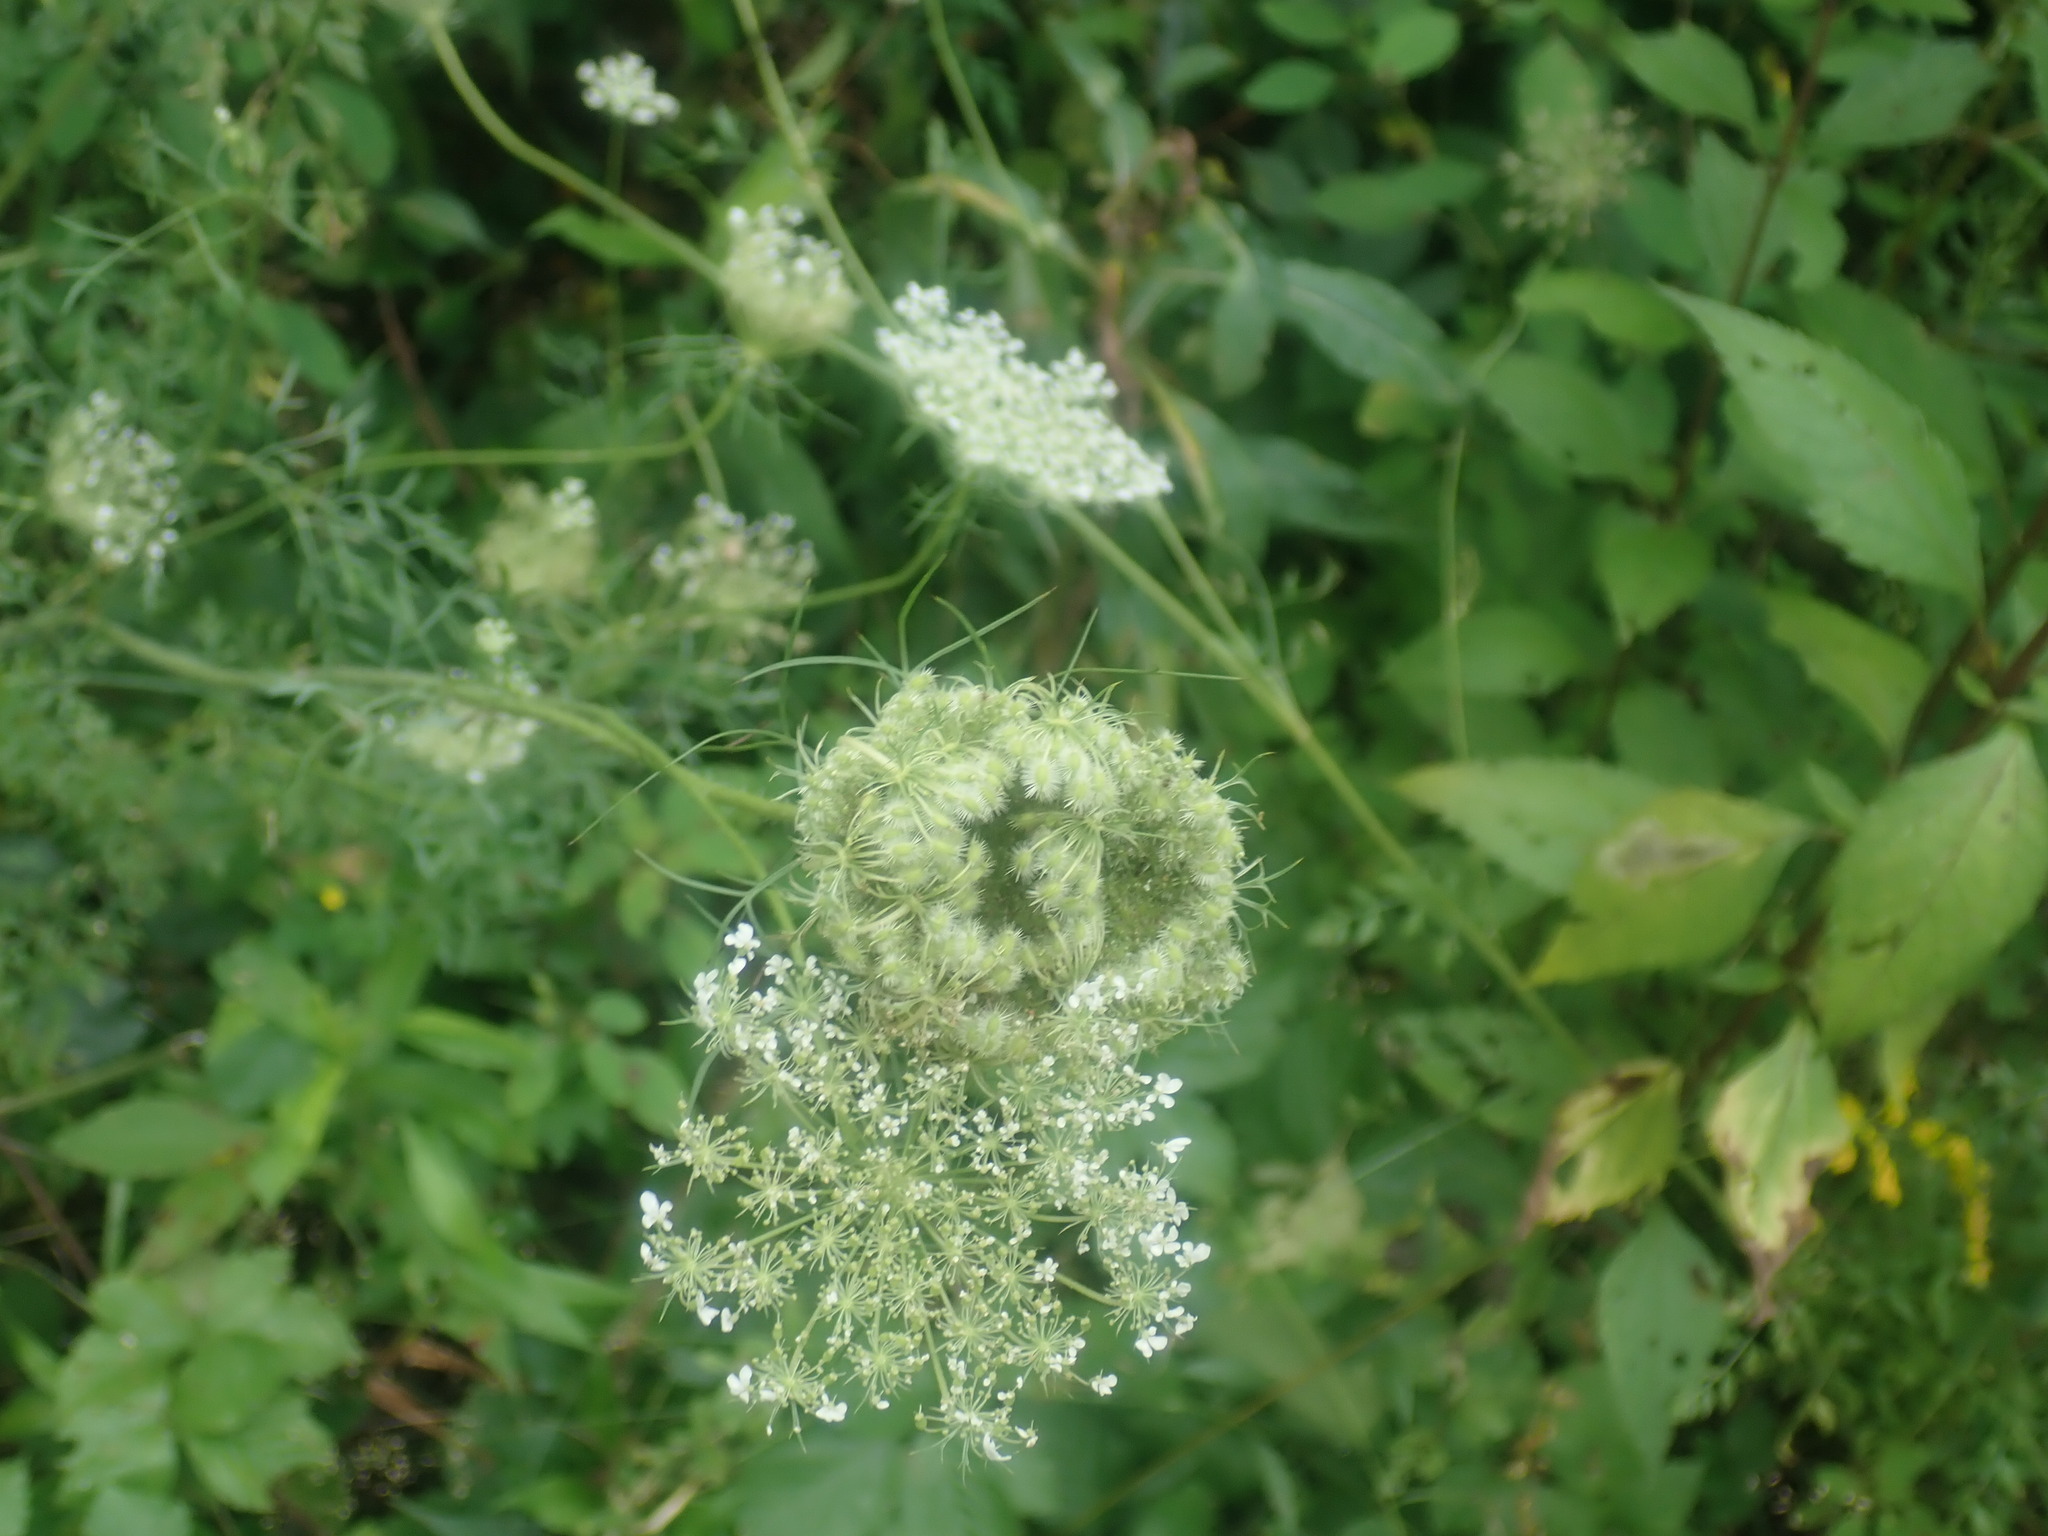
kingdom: Plantae
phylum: Tracheophyta
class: Magnoliopsida
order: Apiales
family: Apiaceae
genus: Daucus
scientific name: Daucus carota
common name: Wild carrot
